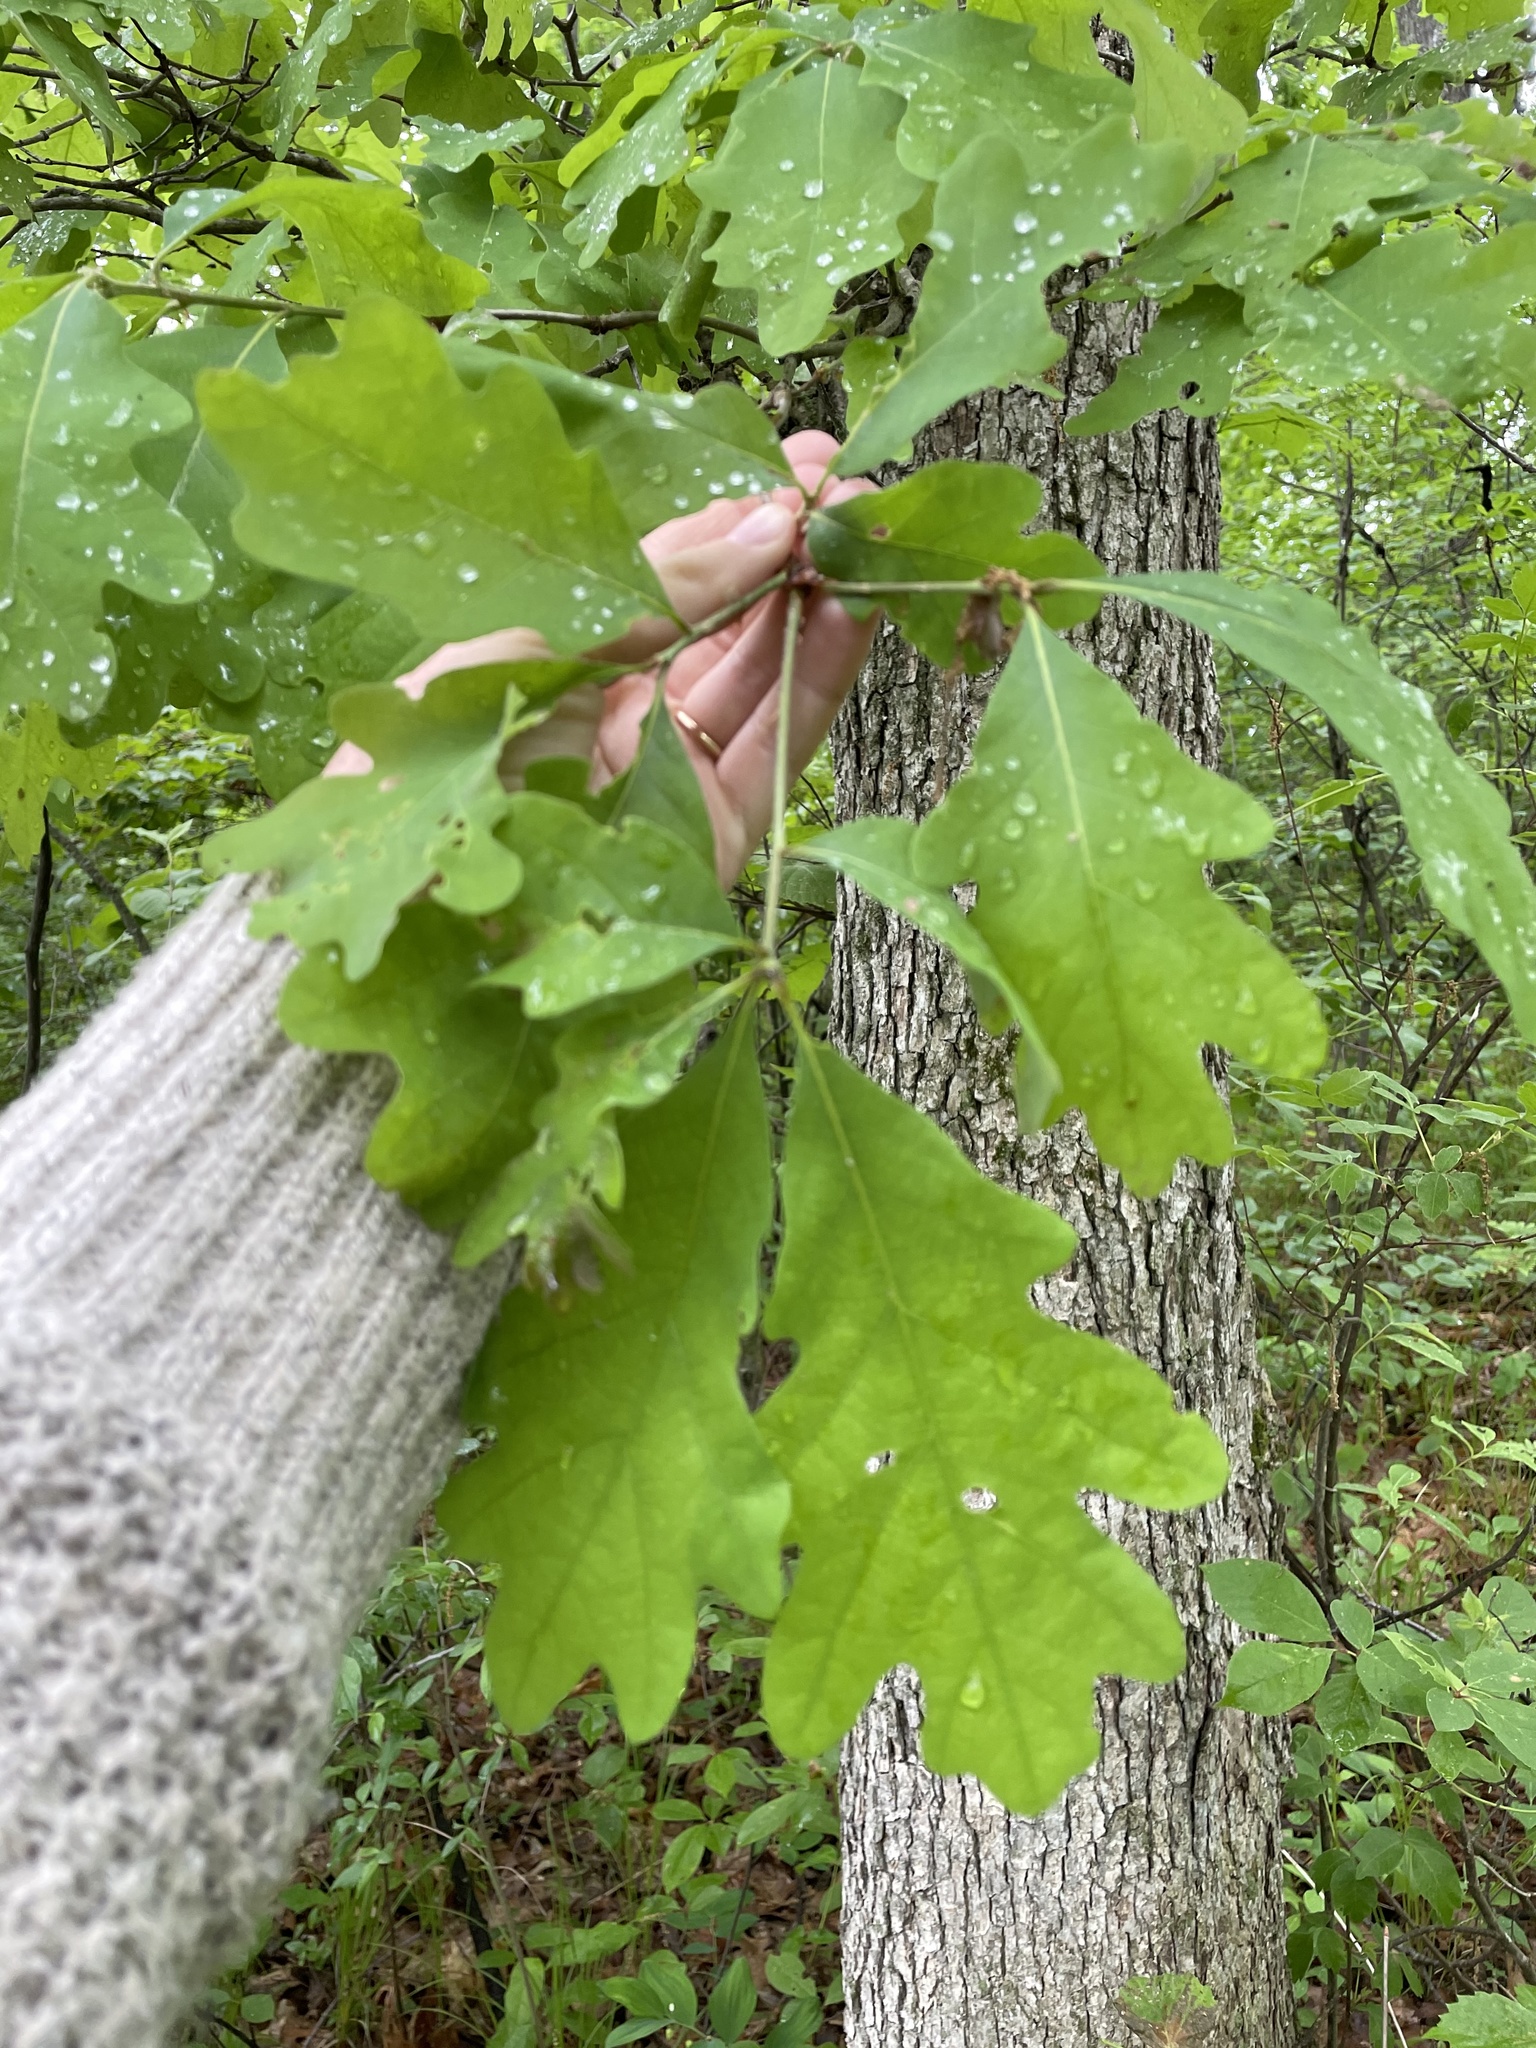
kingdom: Plantae
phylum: Tracheophyta
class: Magnoliopsida
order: Fagales
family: Fagaceae
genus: Quercus
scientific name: Quercus alba
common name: White oak
